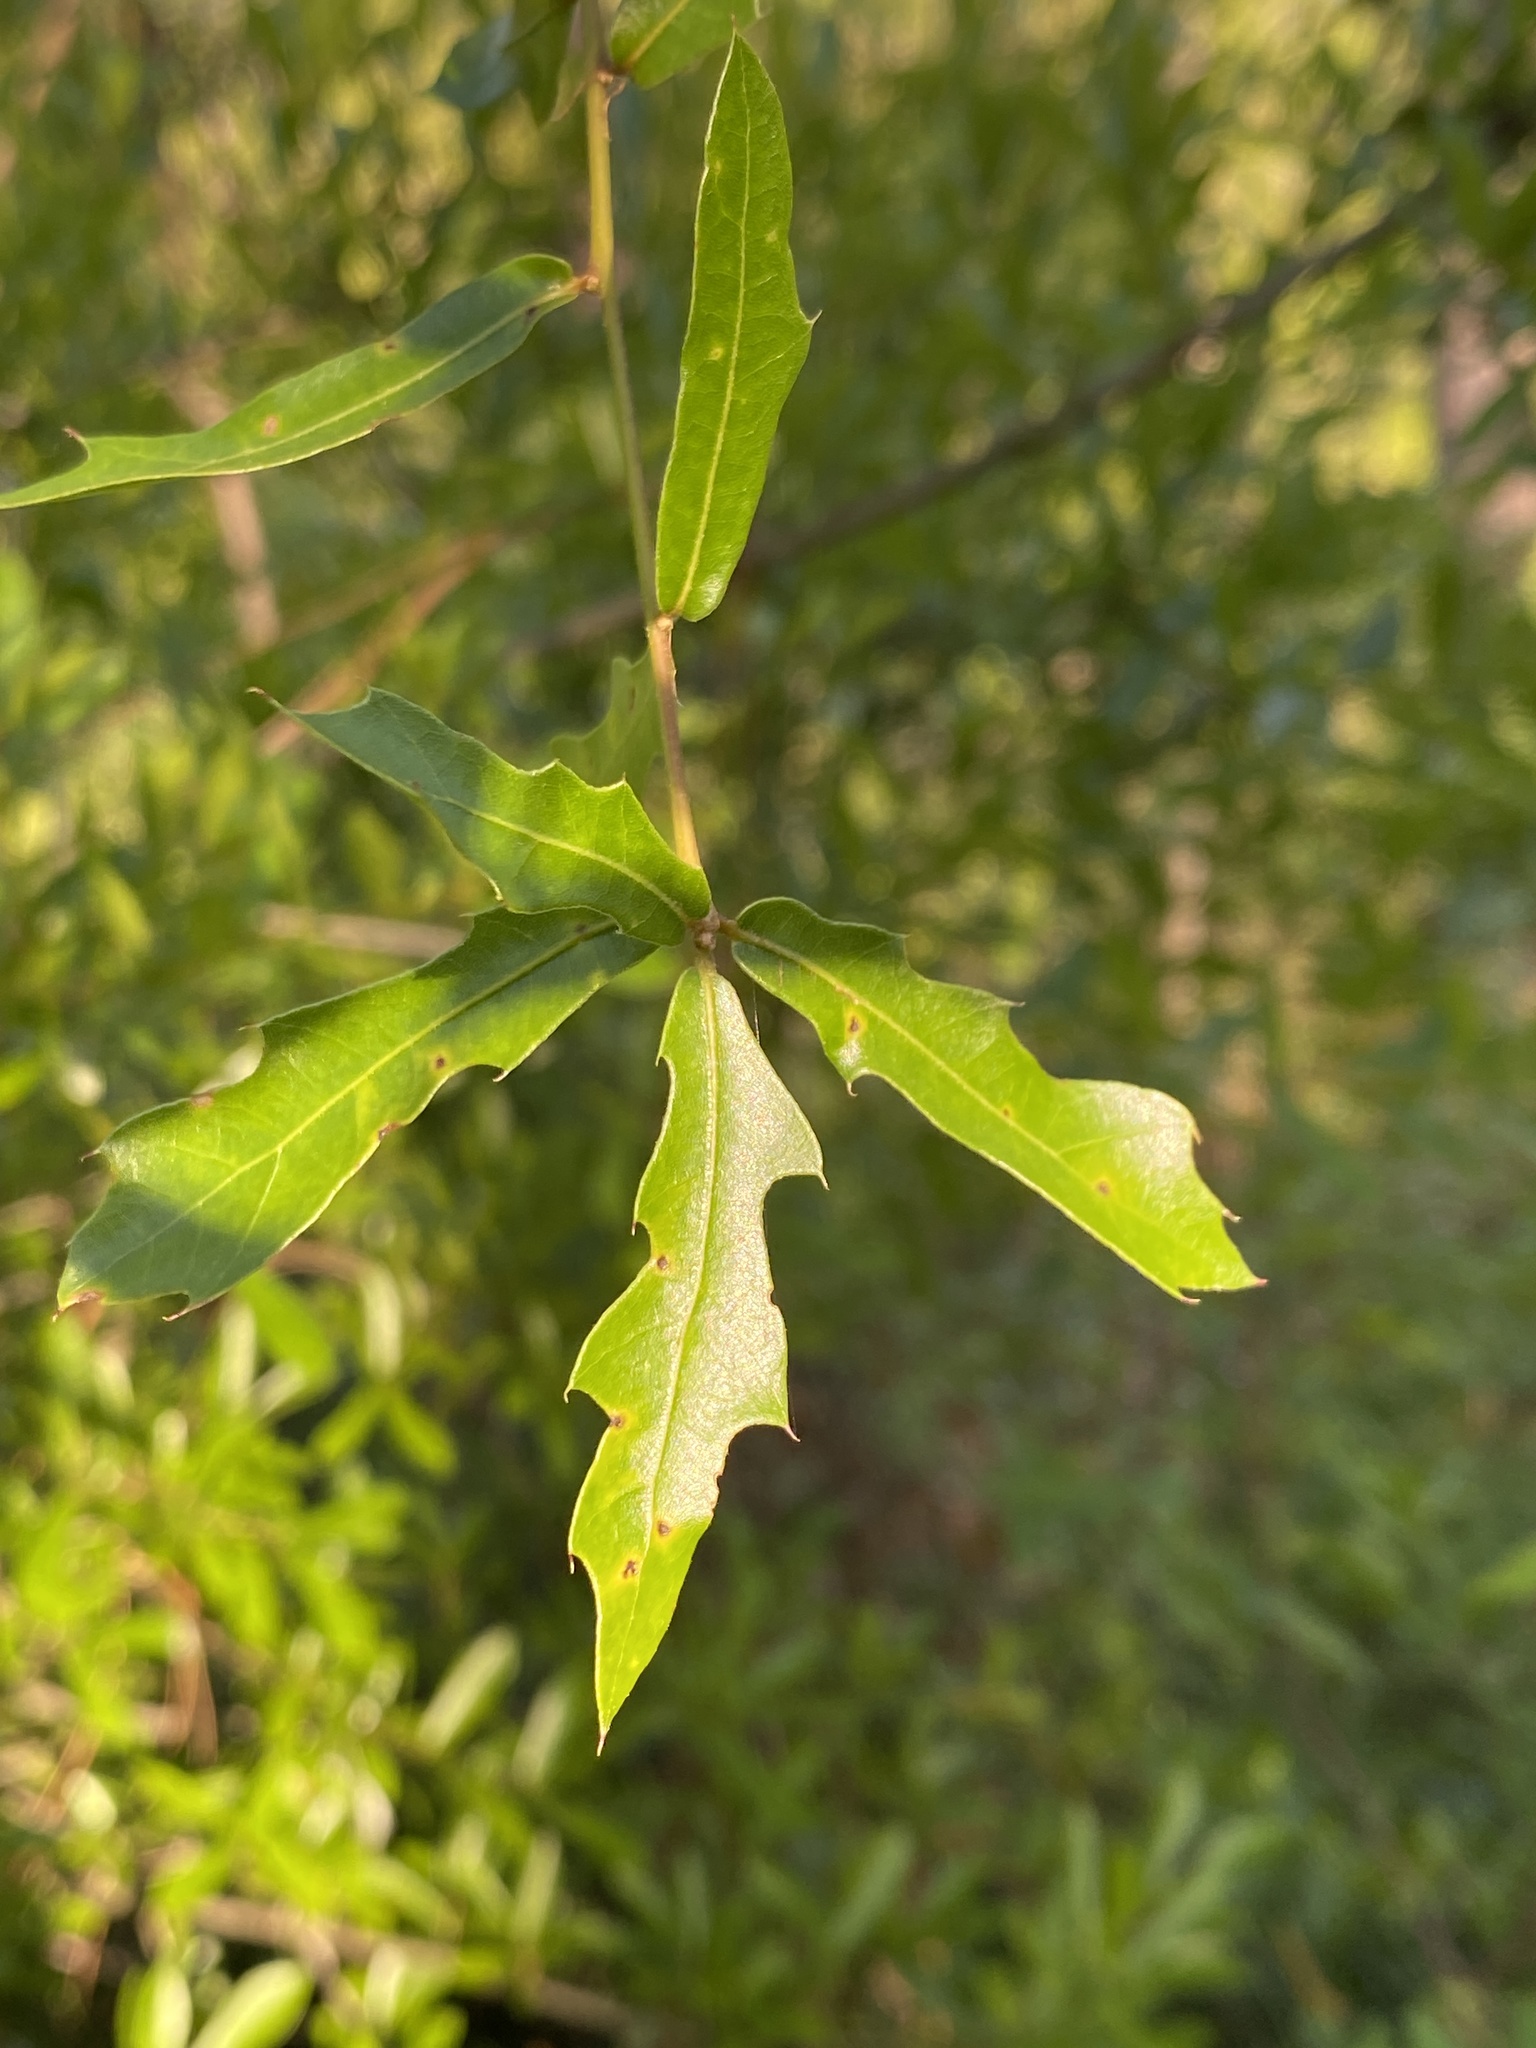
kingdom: Plantae
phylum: Tracheophyta
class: Magnoliopsida
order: Fagales
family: Fagaceae
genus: Quercus
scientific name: Quercus hemisphaerica
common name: Darlington oak
